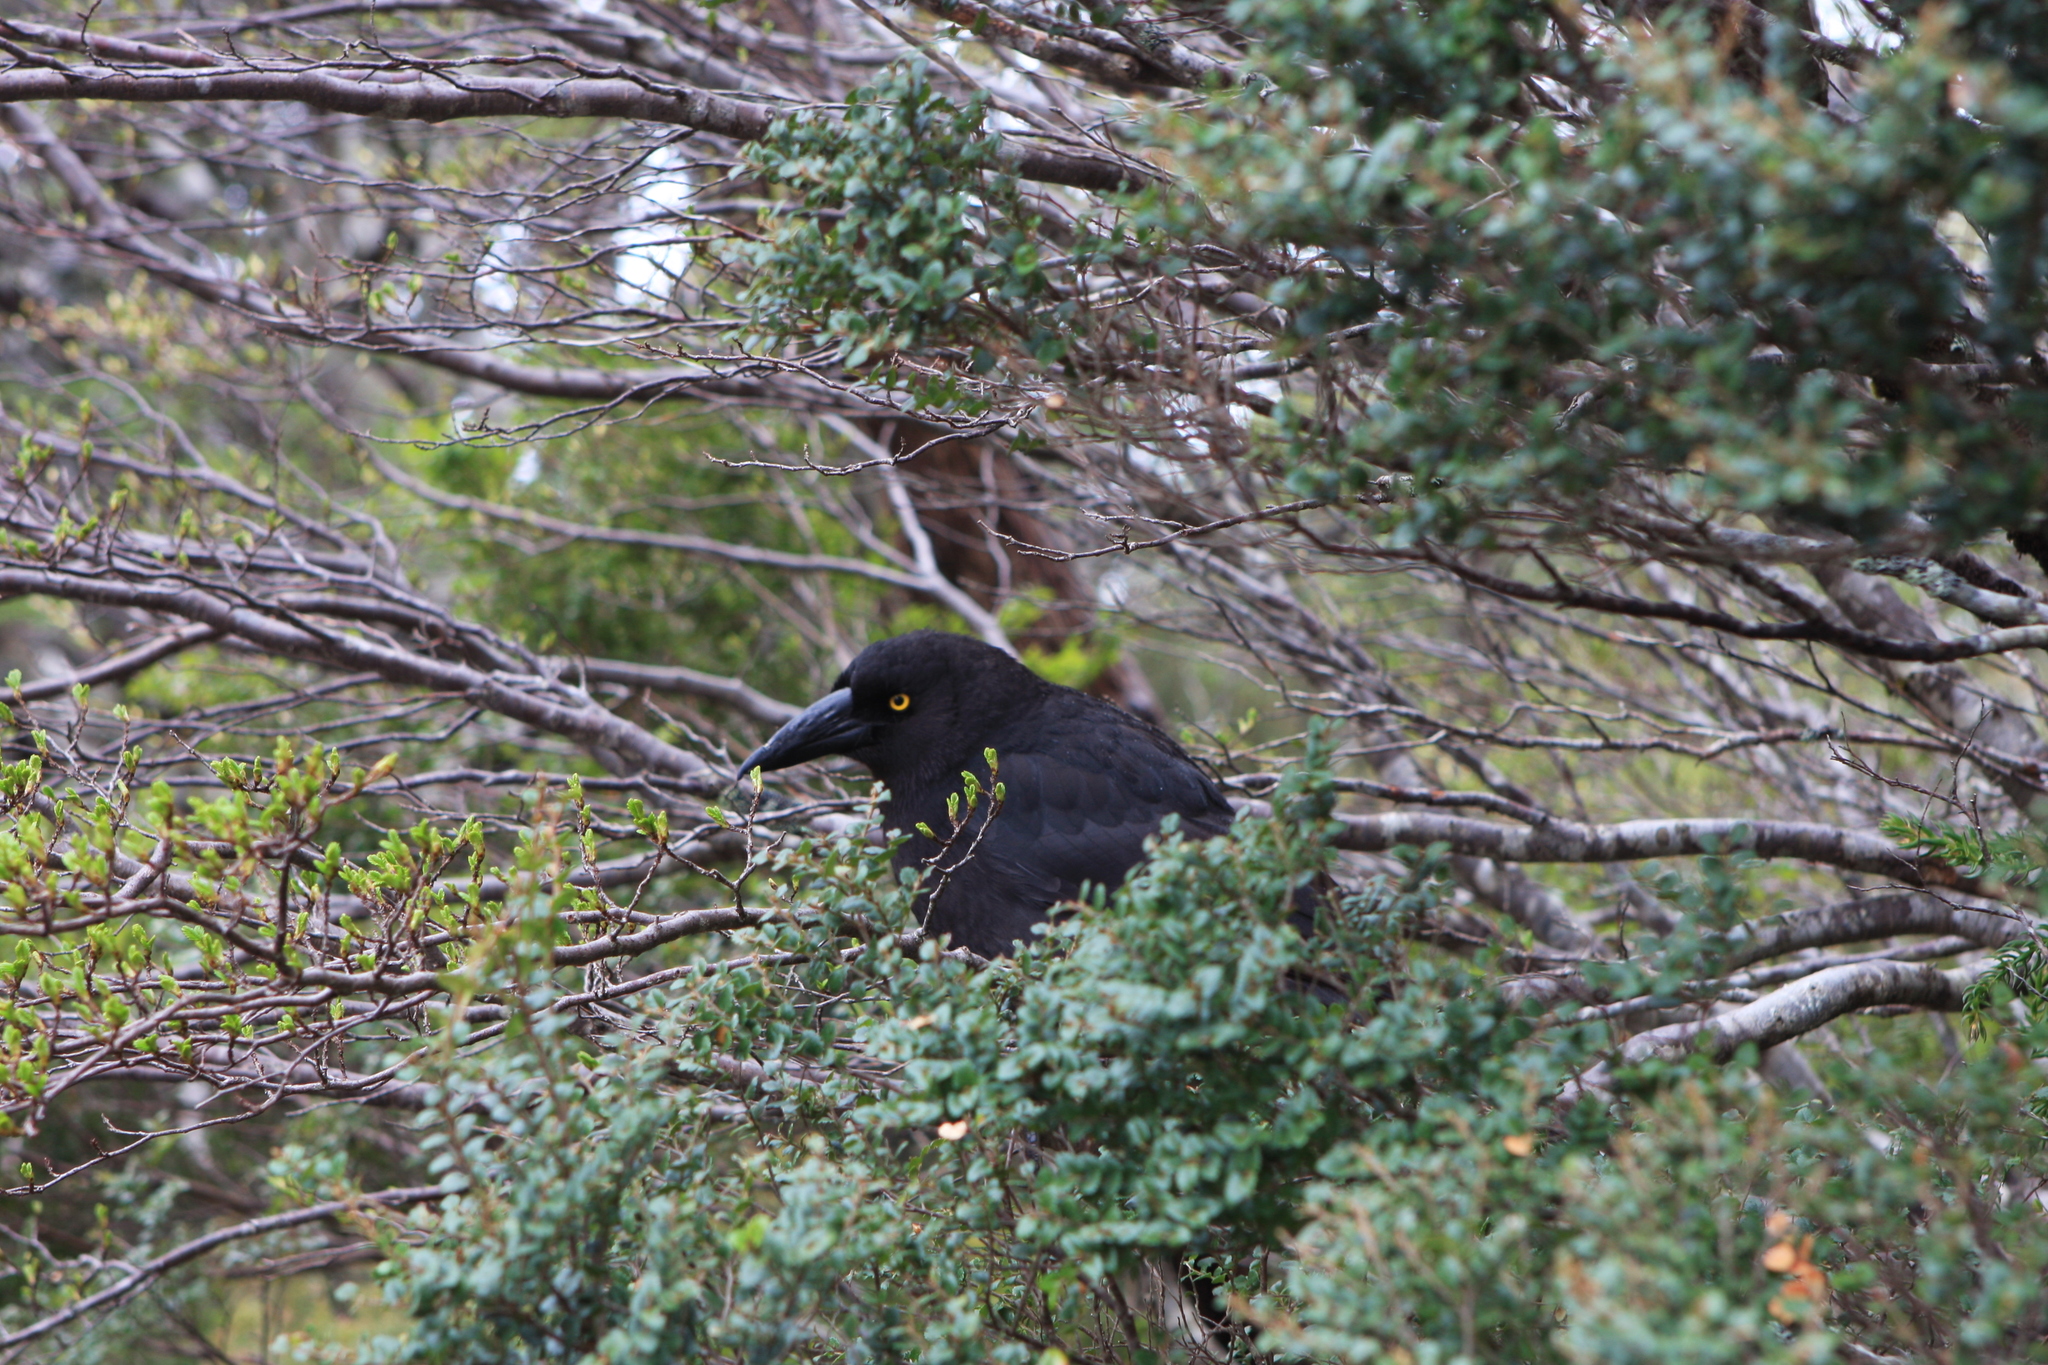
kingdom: Animalia
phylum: Chordata
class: Aves
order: Passeriformes
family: Cracticidae
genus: Strepera
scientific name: Strepera fuliginosa
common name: Black currawong
